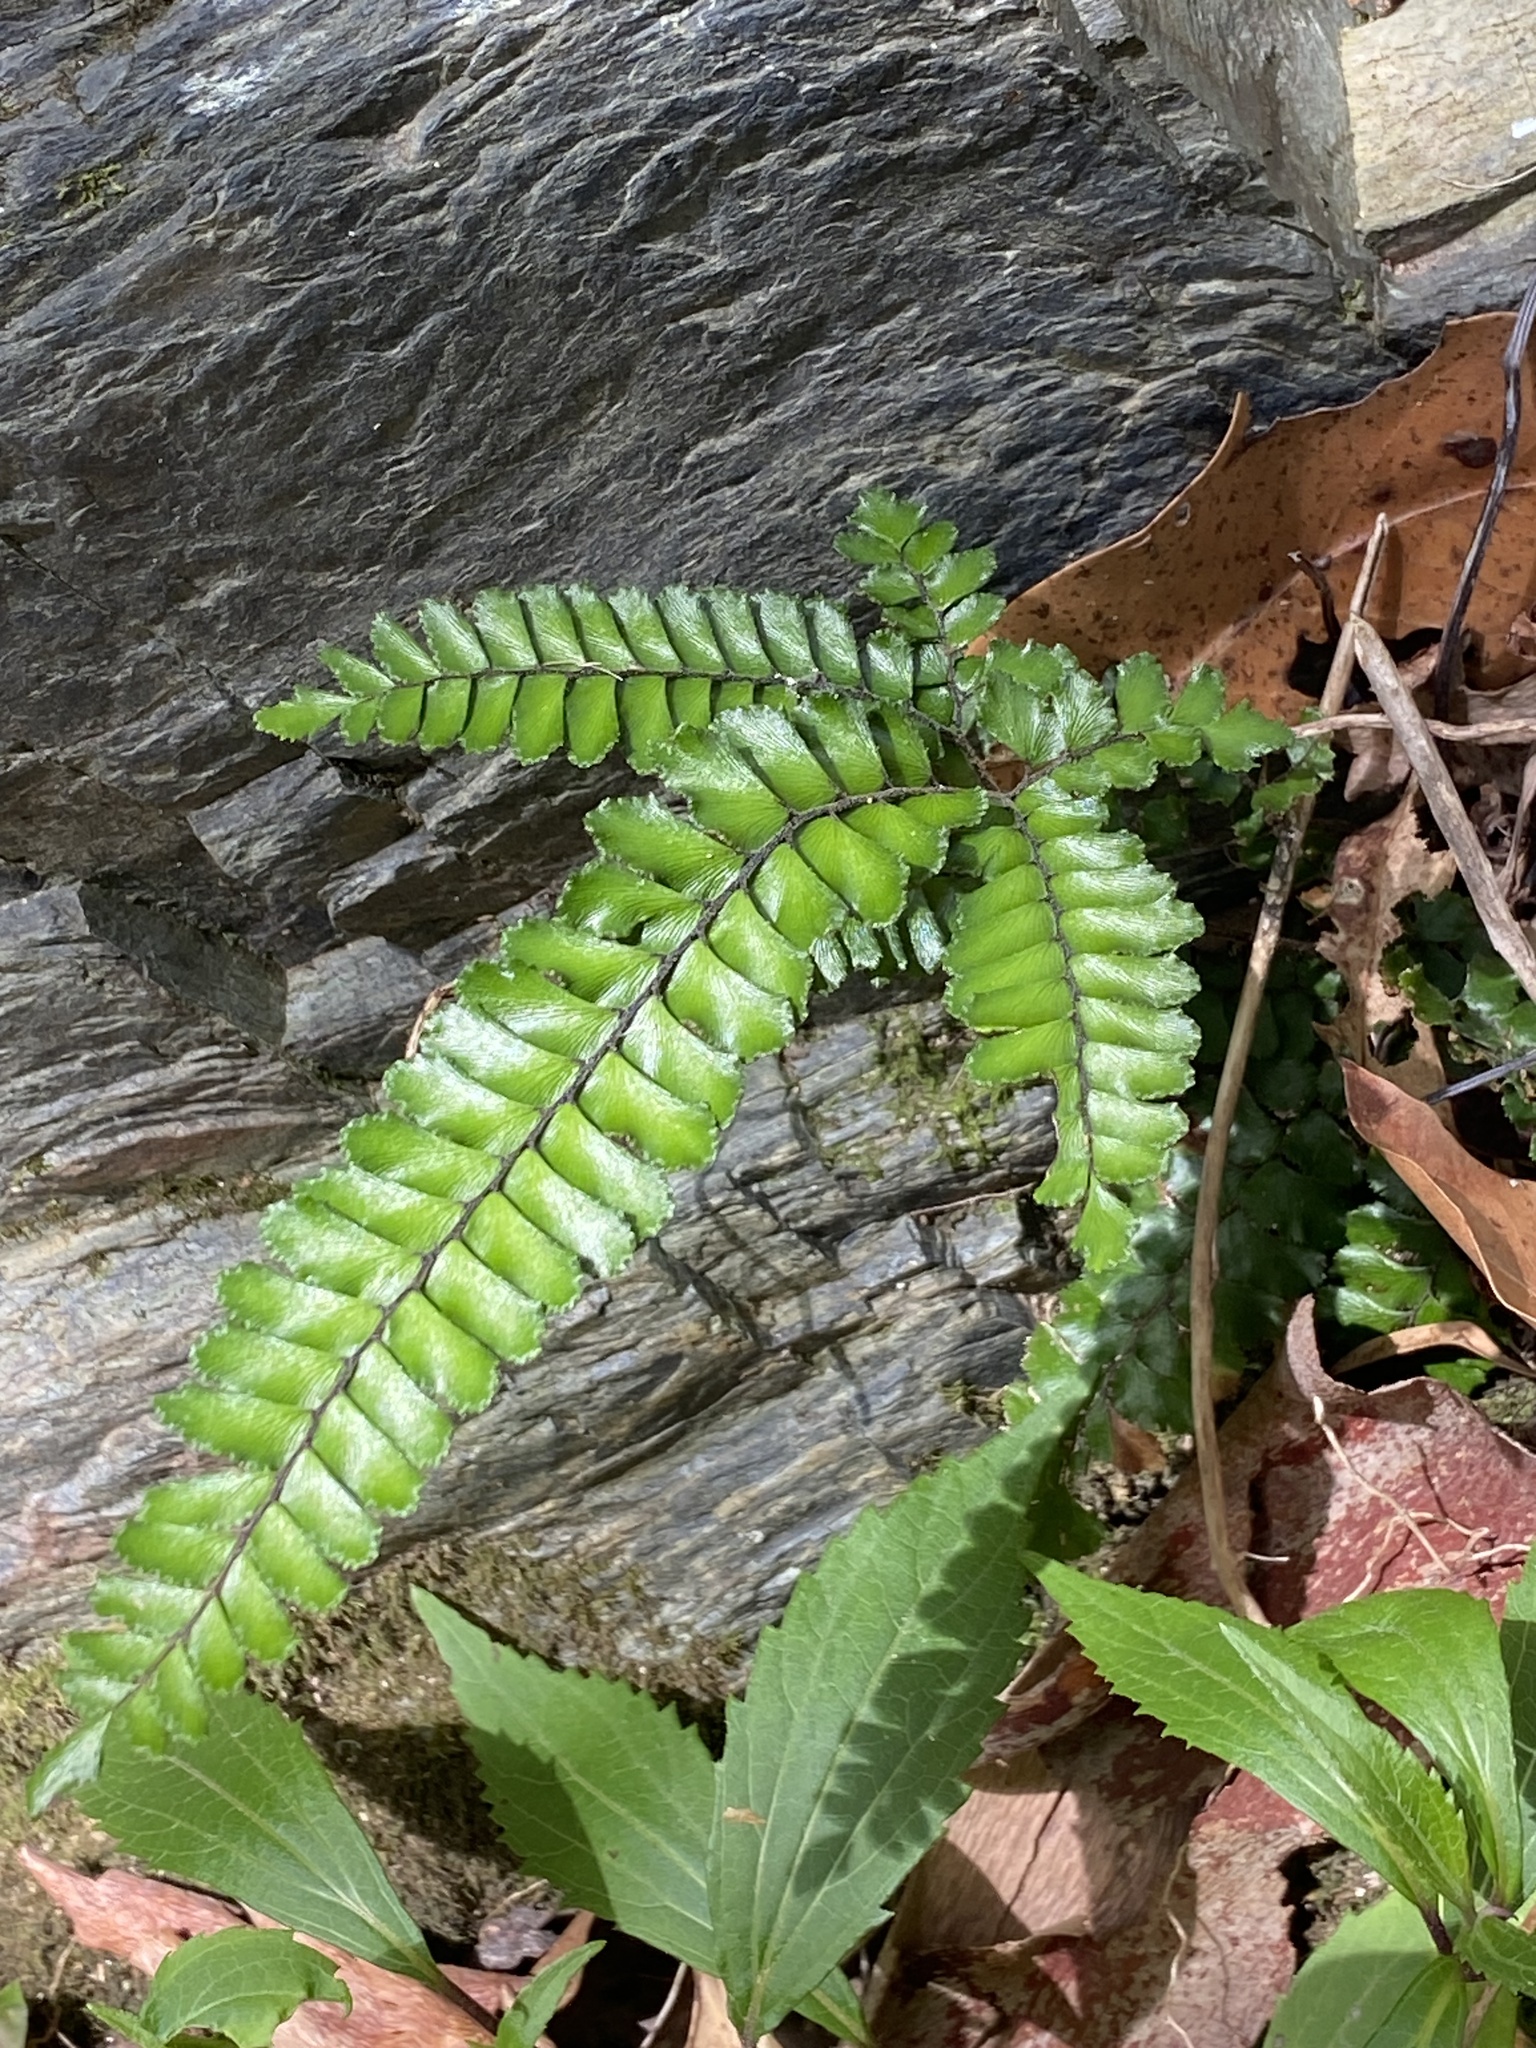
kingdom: Plantae
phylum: Tracheophyta
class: Polypodiopsida
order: Polypodiales
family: Pteridaceae
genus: Adiantum
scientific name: Adiantum hispidulum
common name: Rough maidenhair
